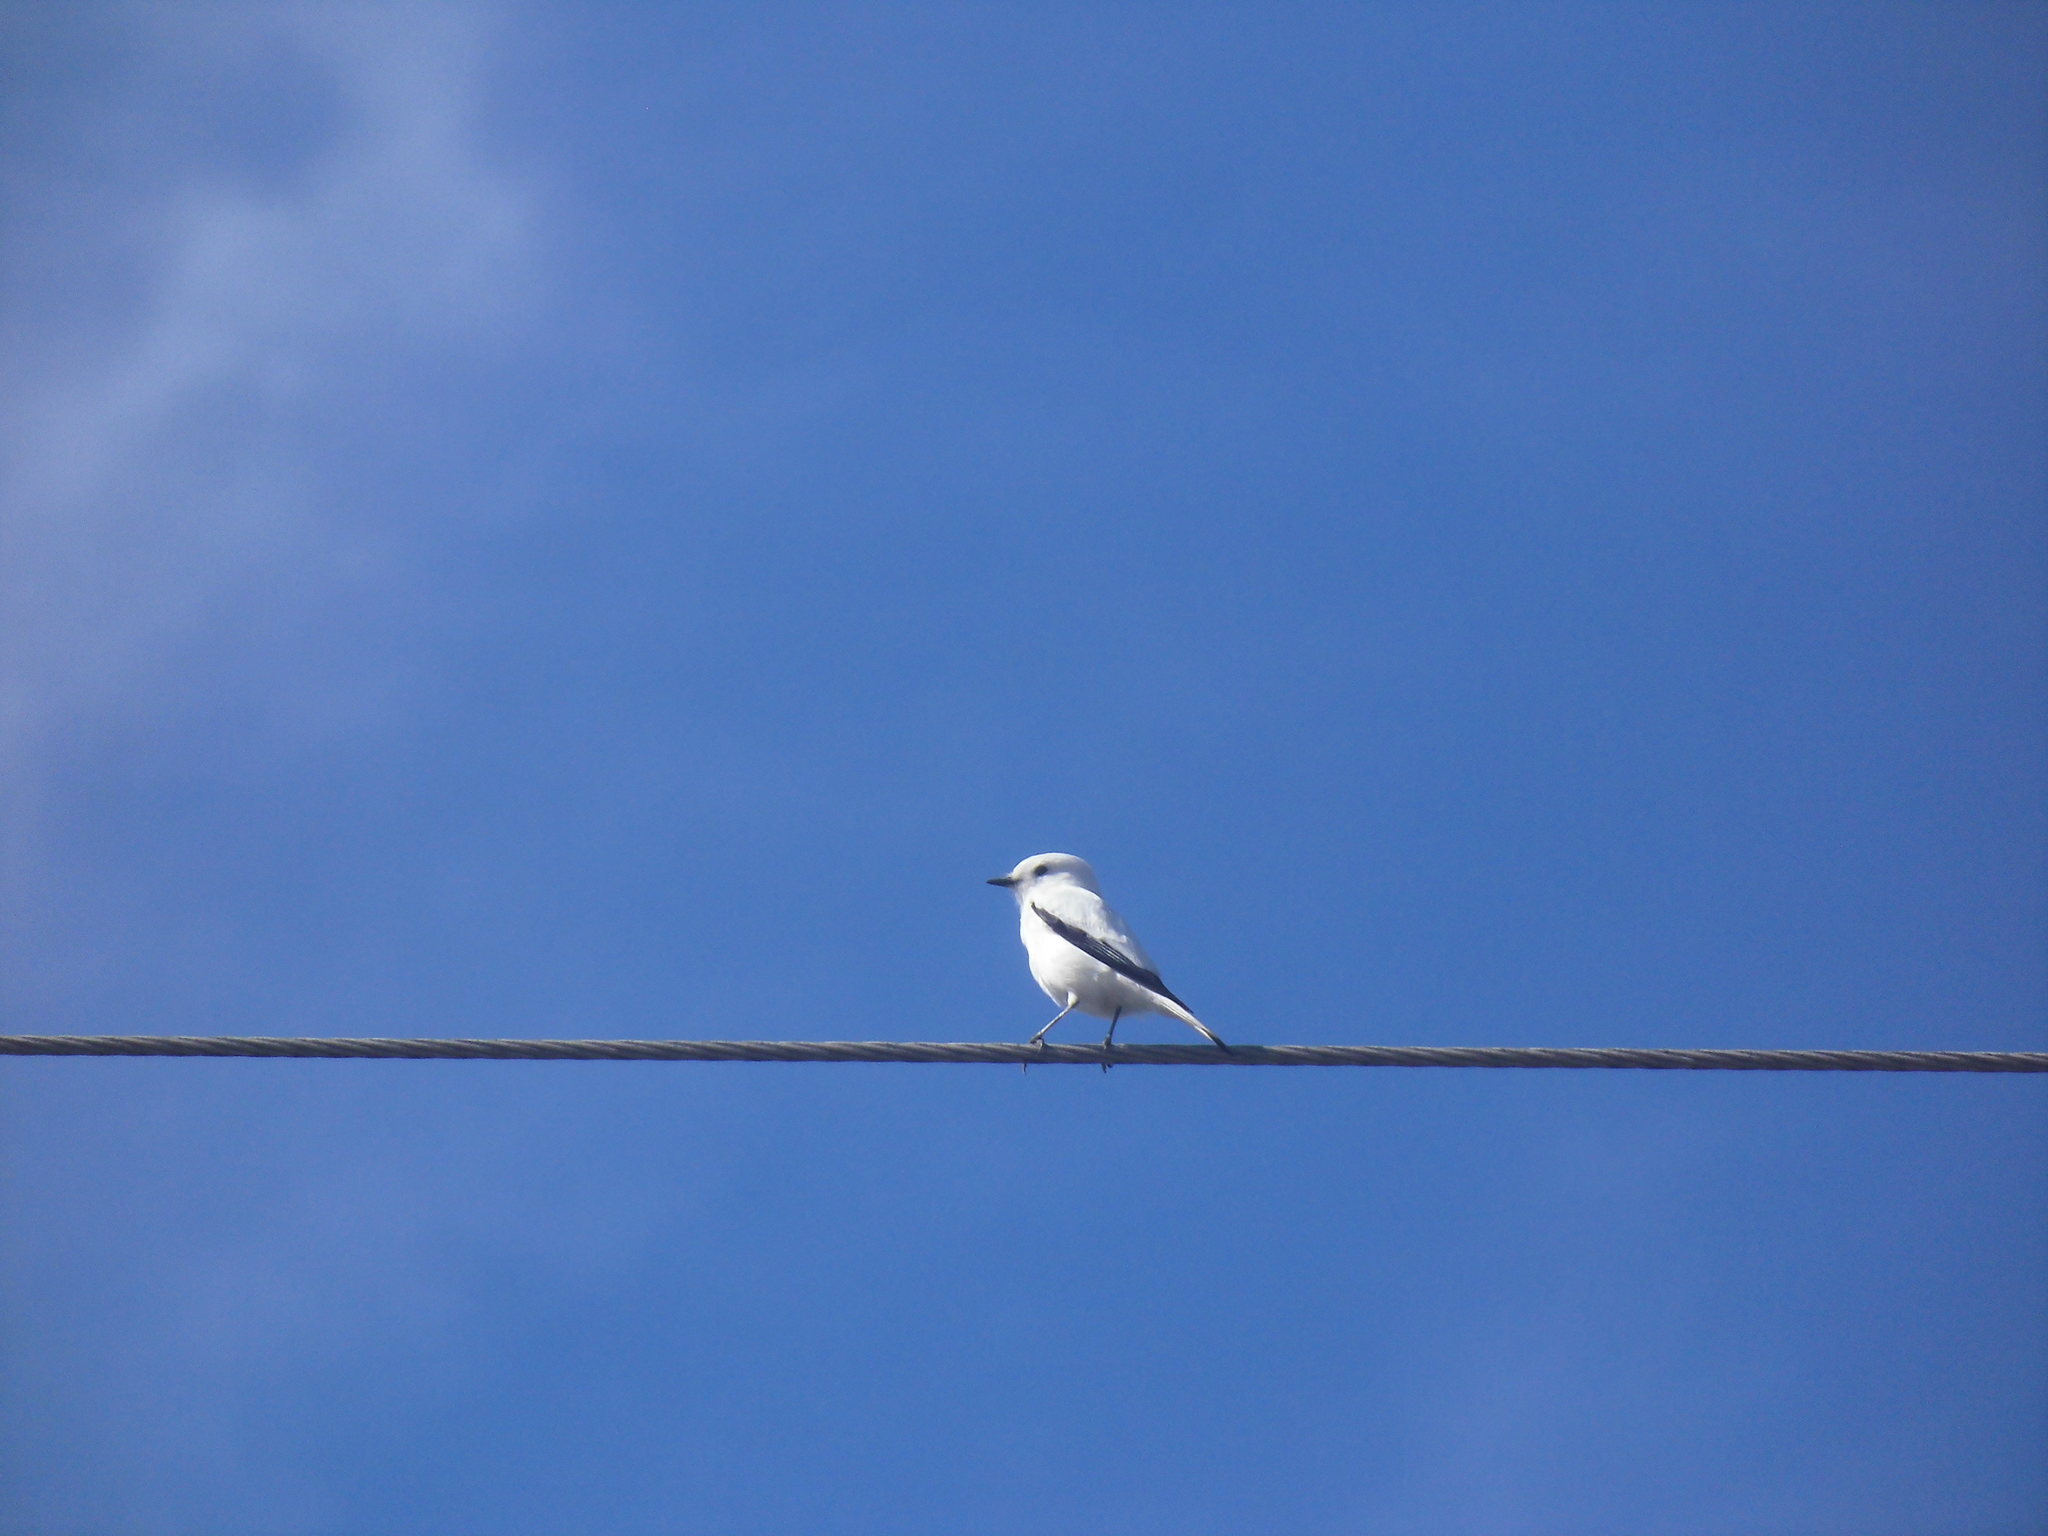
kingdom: Animalia
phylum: Chordata
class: Aves
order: Passeriformes
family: Tyrannidae
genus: Xolmis
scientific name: Xolmis irupero
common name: White monjita
